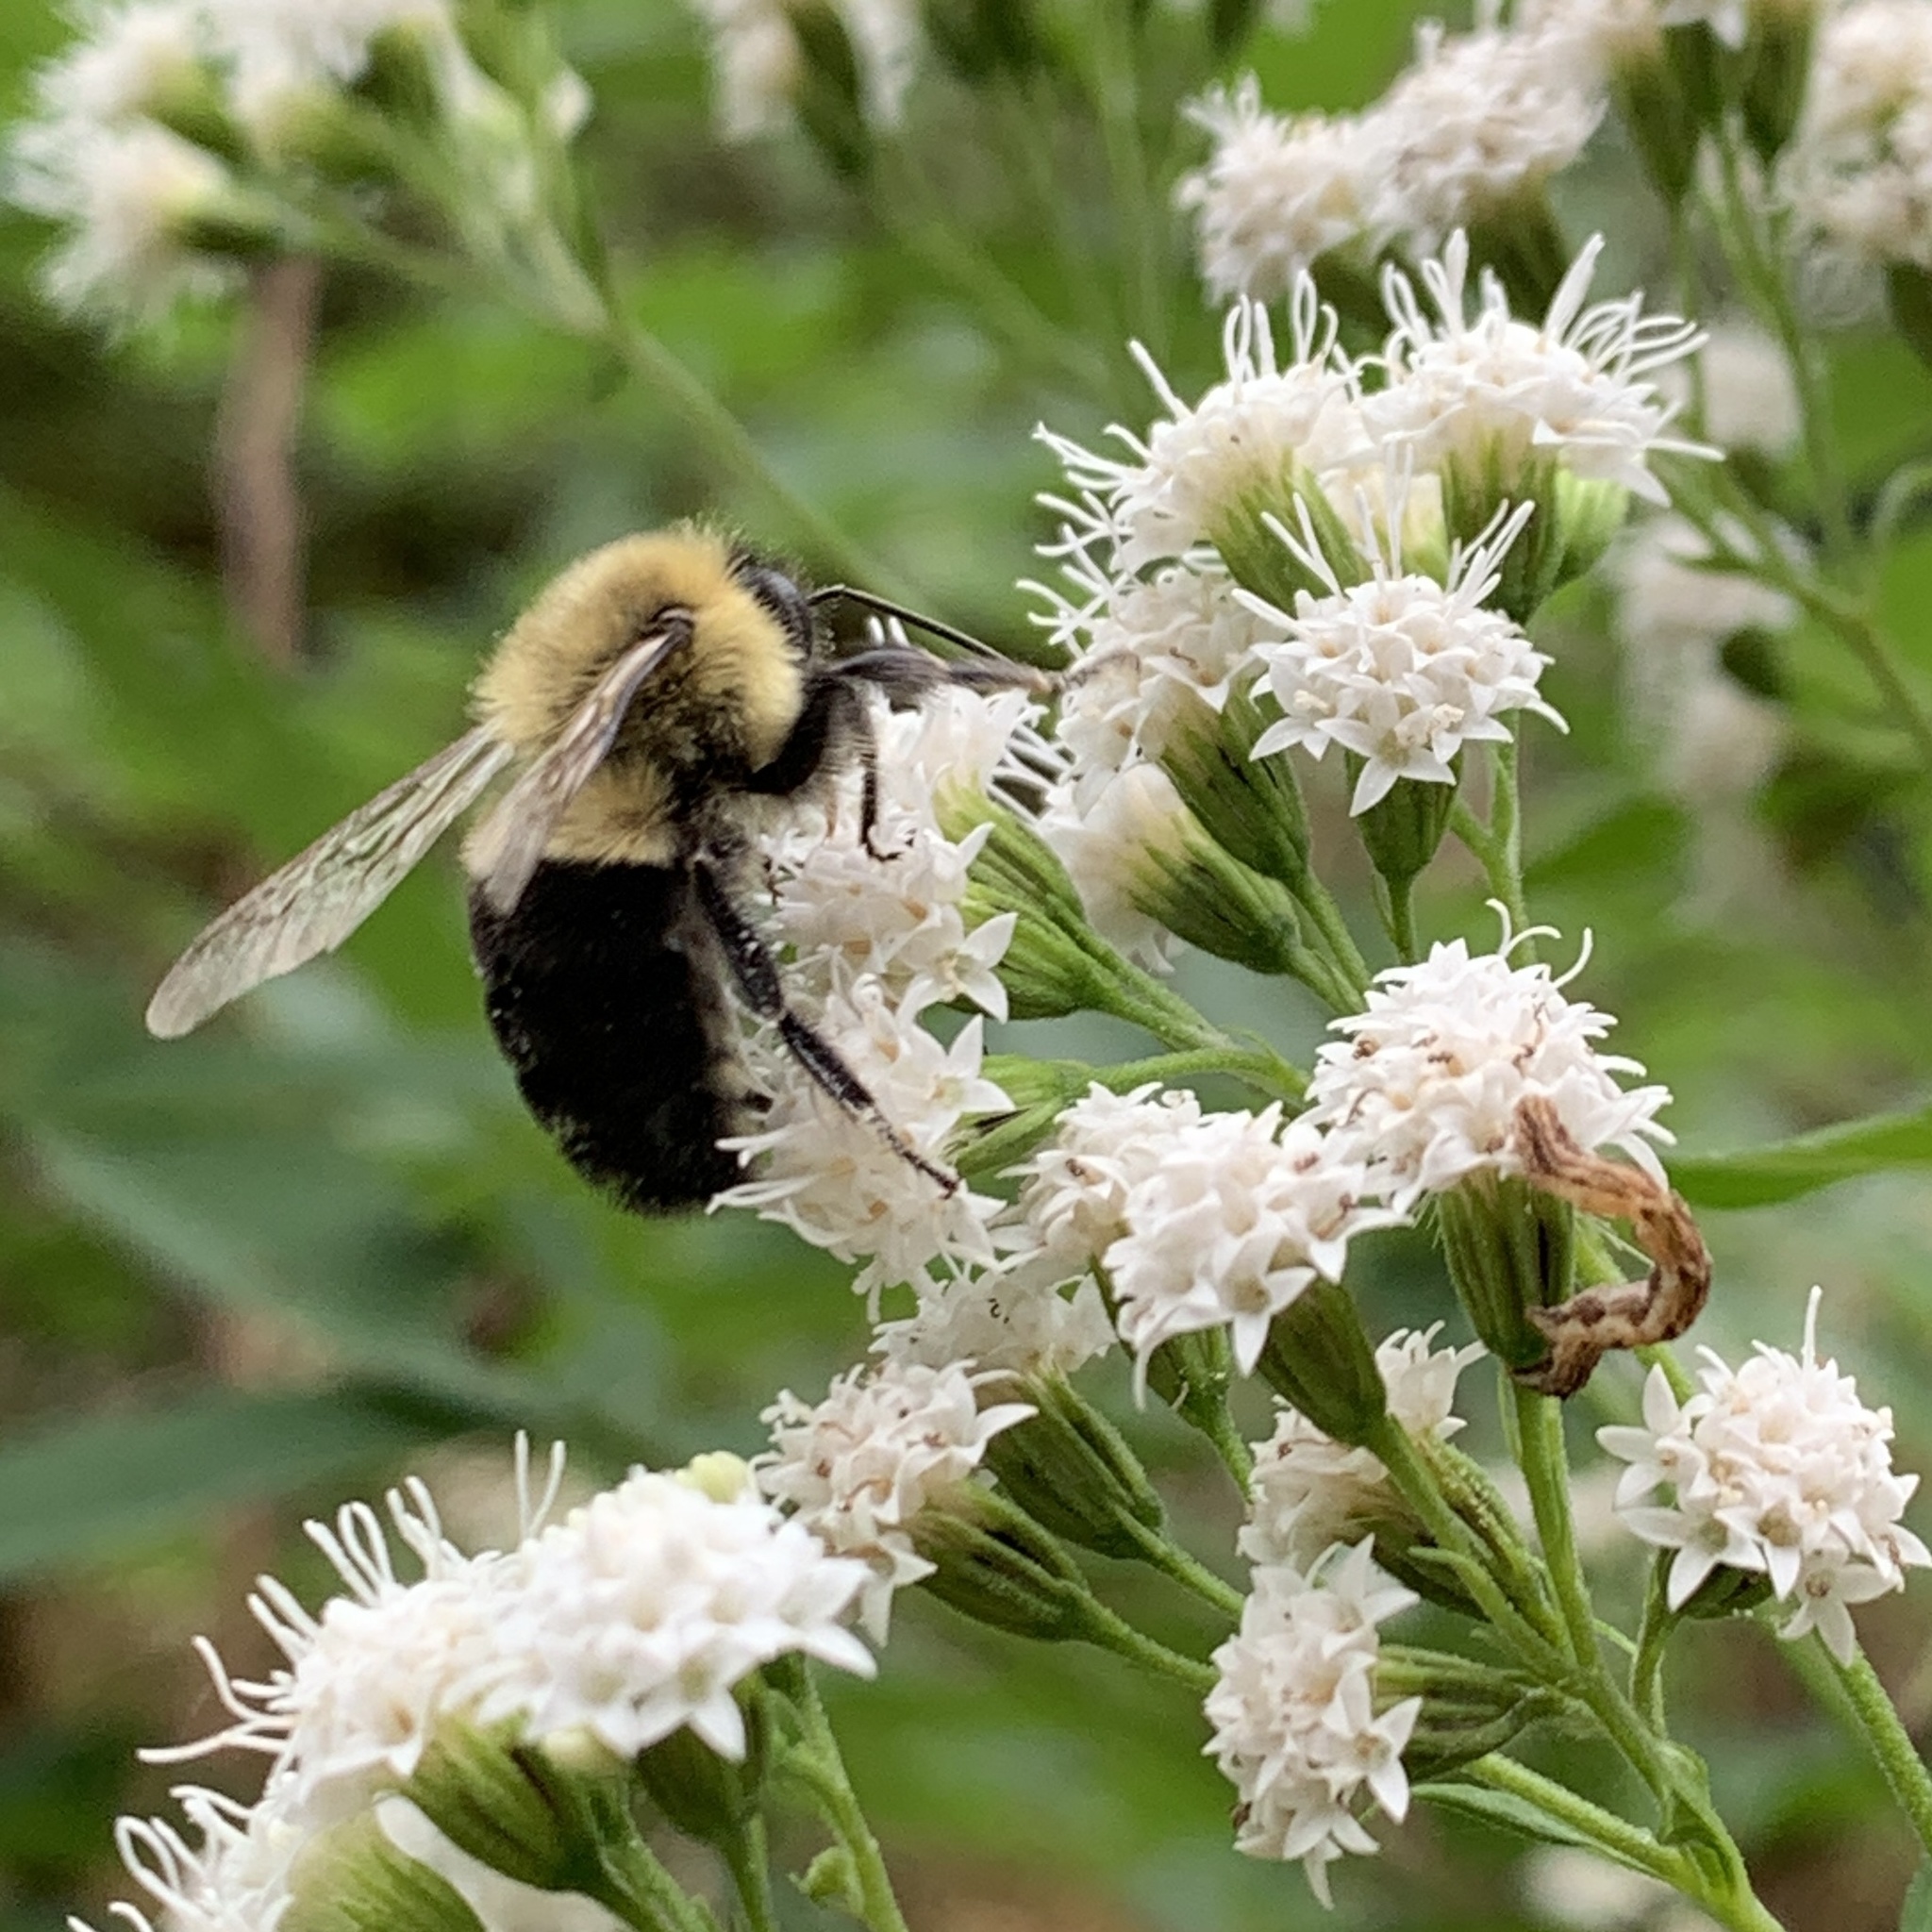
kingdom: Animalia
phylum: Arthropoda
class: Insecta
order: Hymenoptera
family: Apidae
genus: Bombus
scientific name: Bombus impatiens
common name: Common eastern bumble bee
